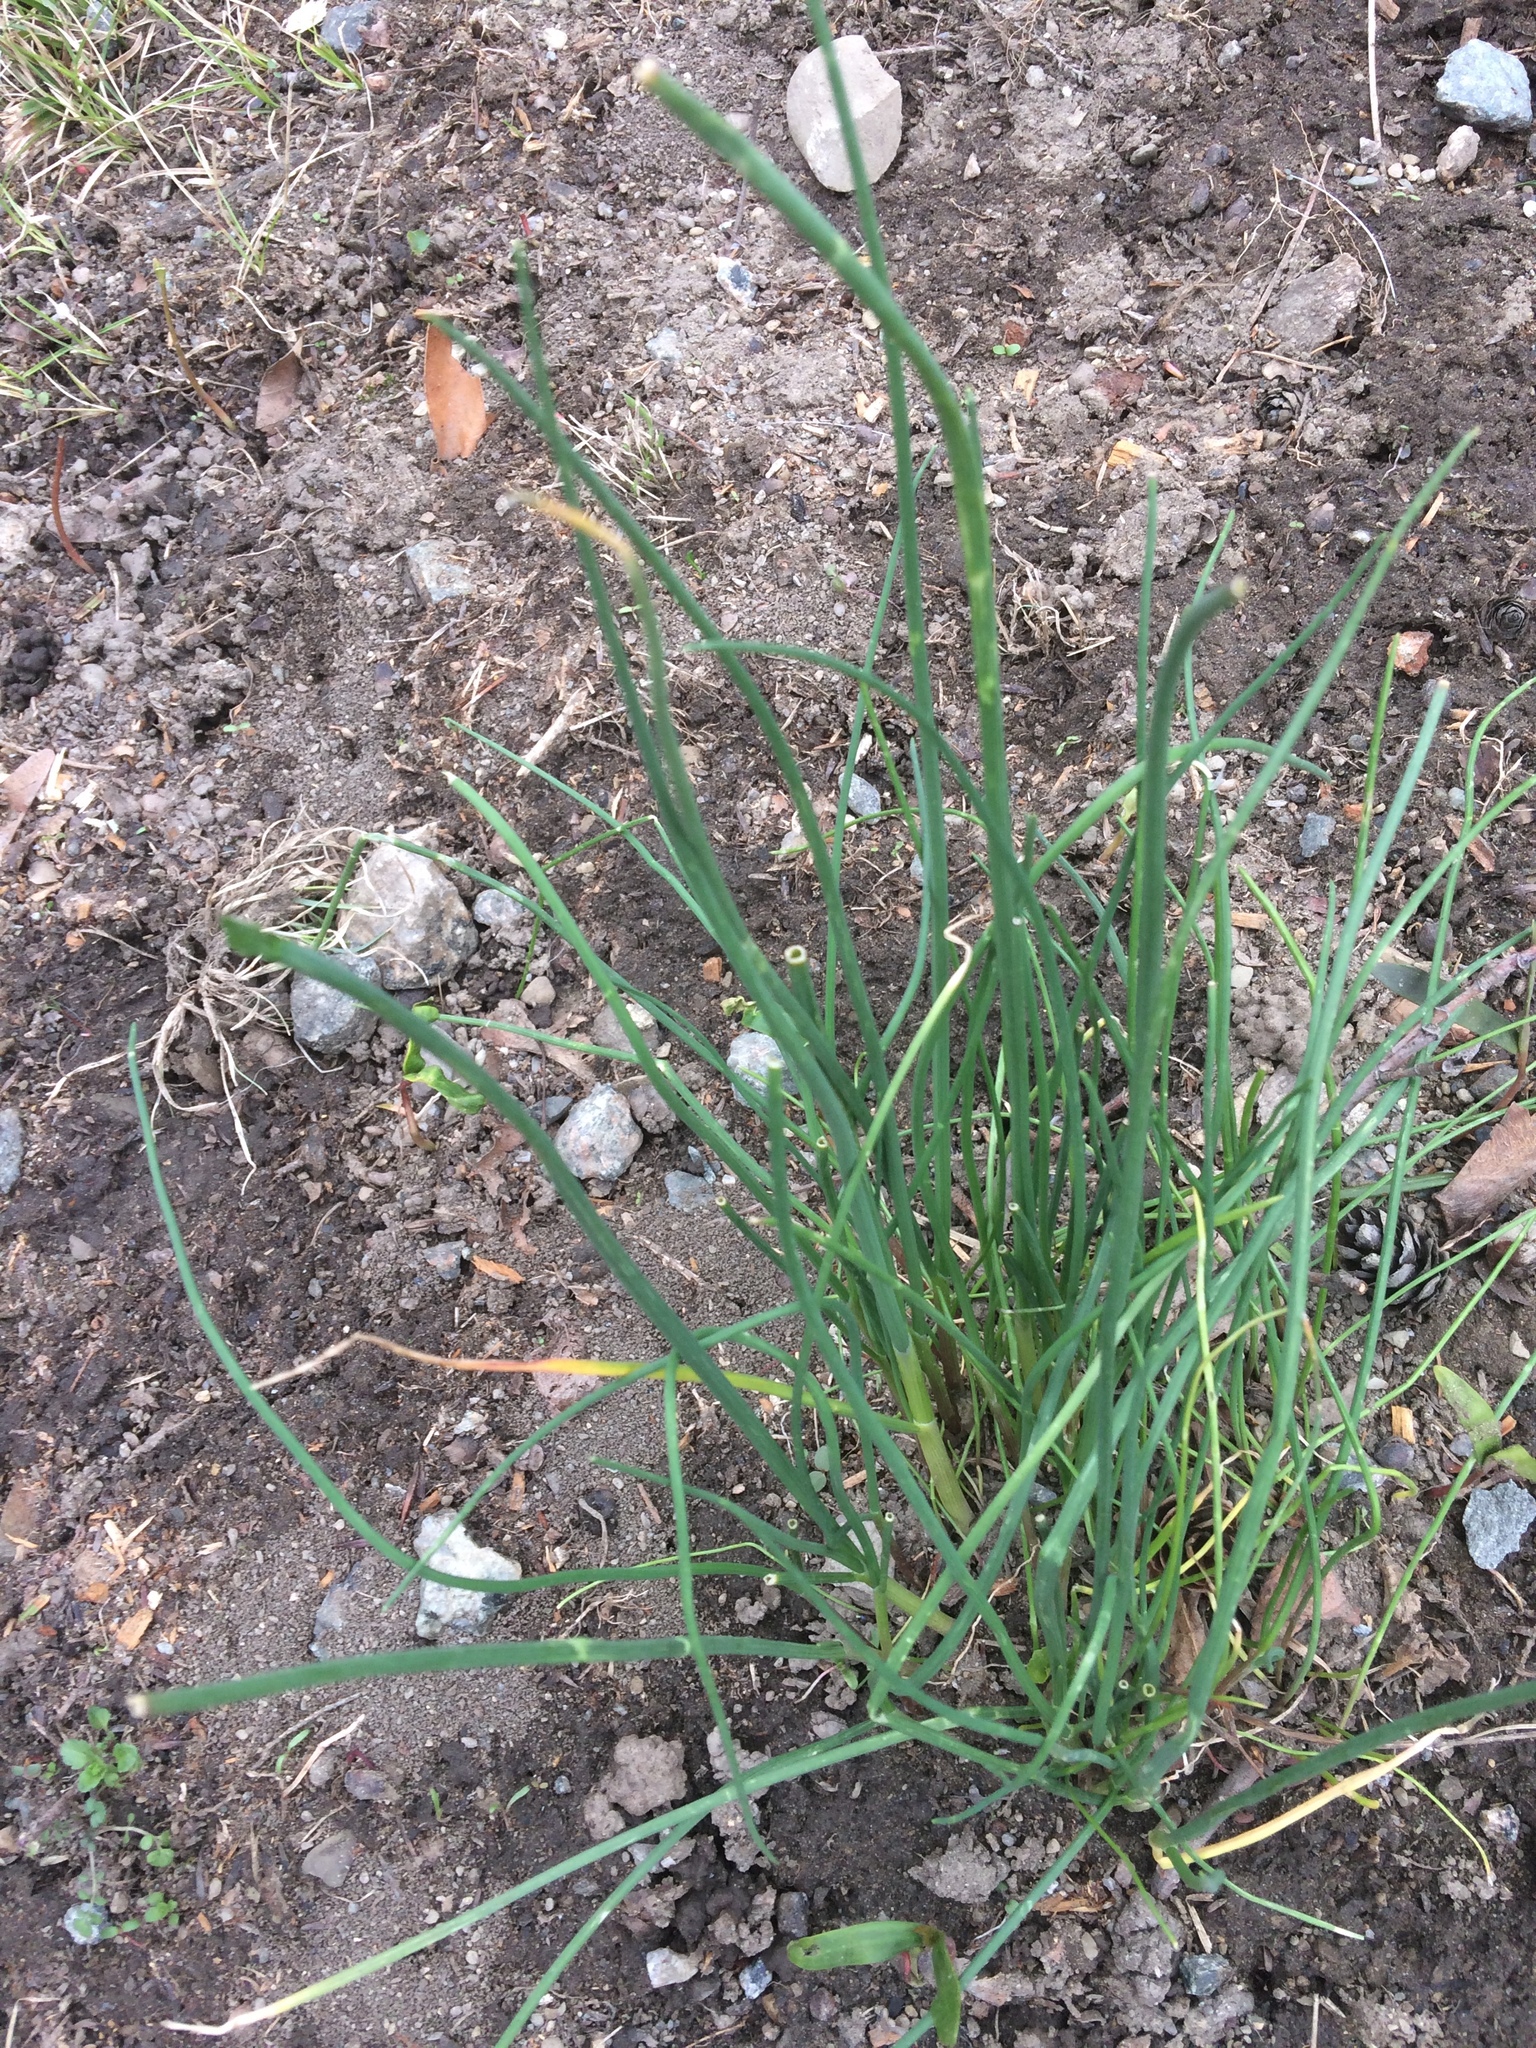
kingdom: Plantae
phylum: Tracheophyta
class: Liliopsida
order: Asparagales
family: Amaryllidaceae
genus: Allium
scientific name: Allium vineale
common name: Crow garlic
